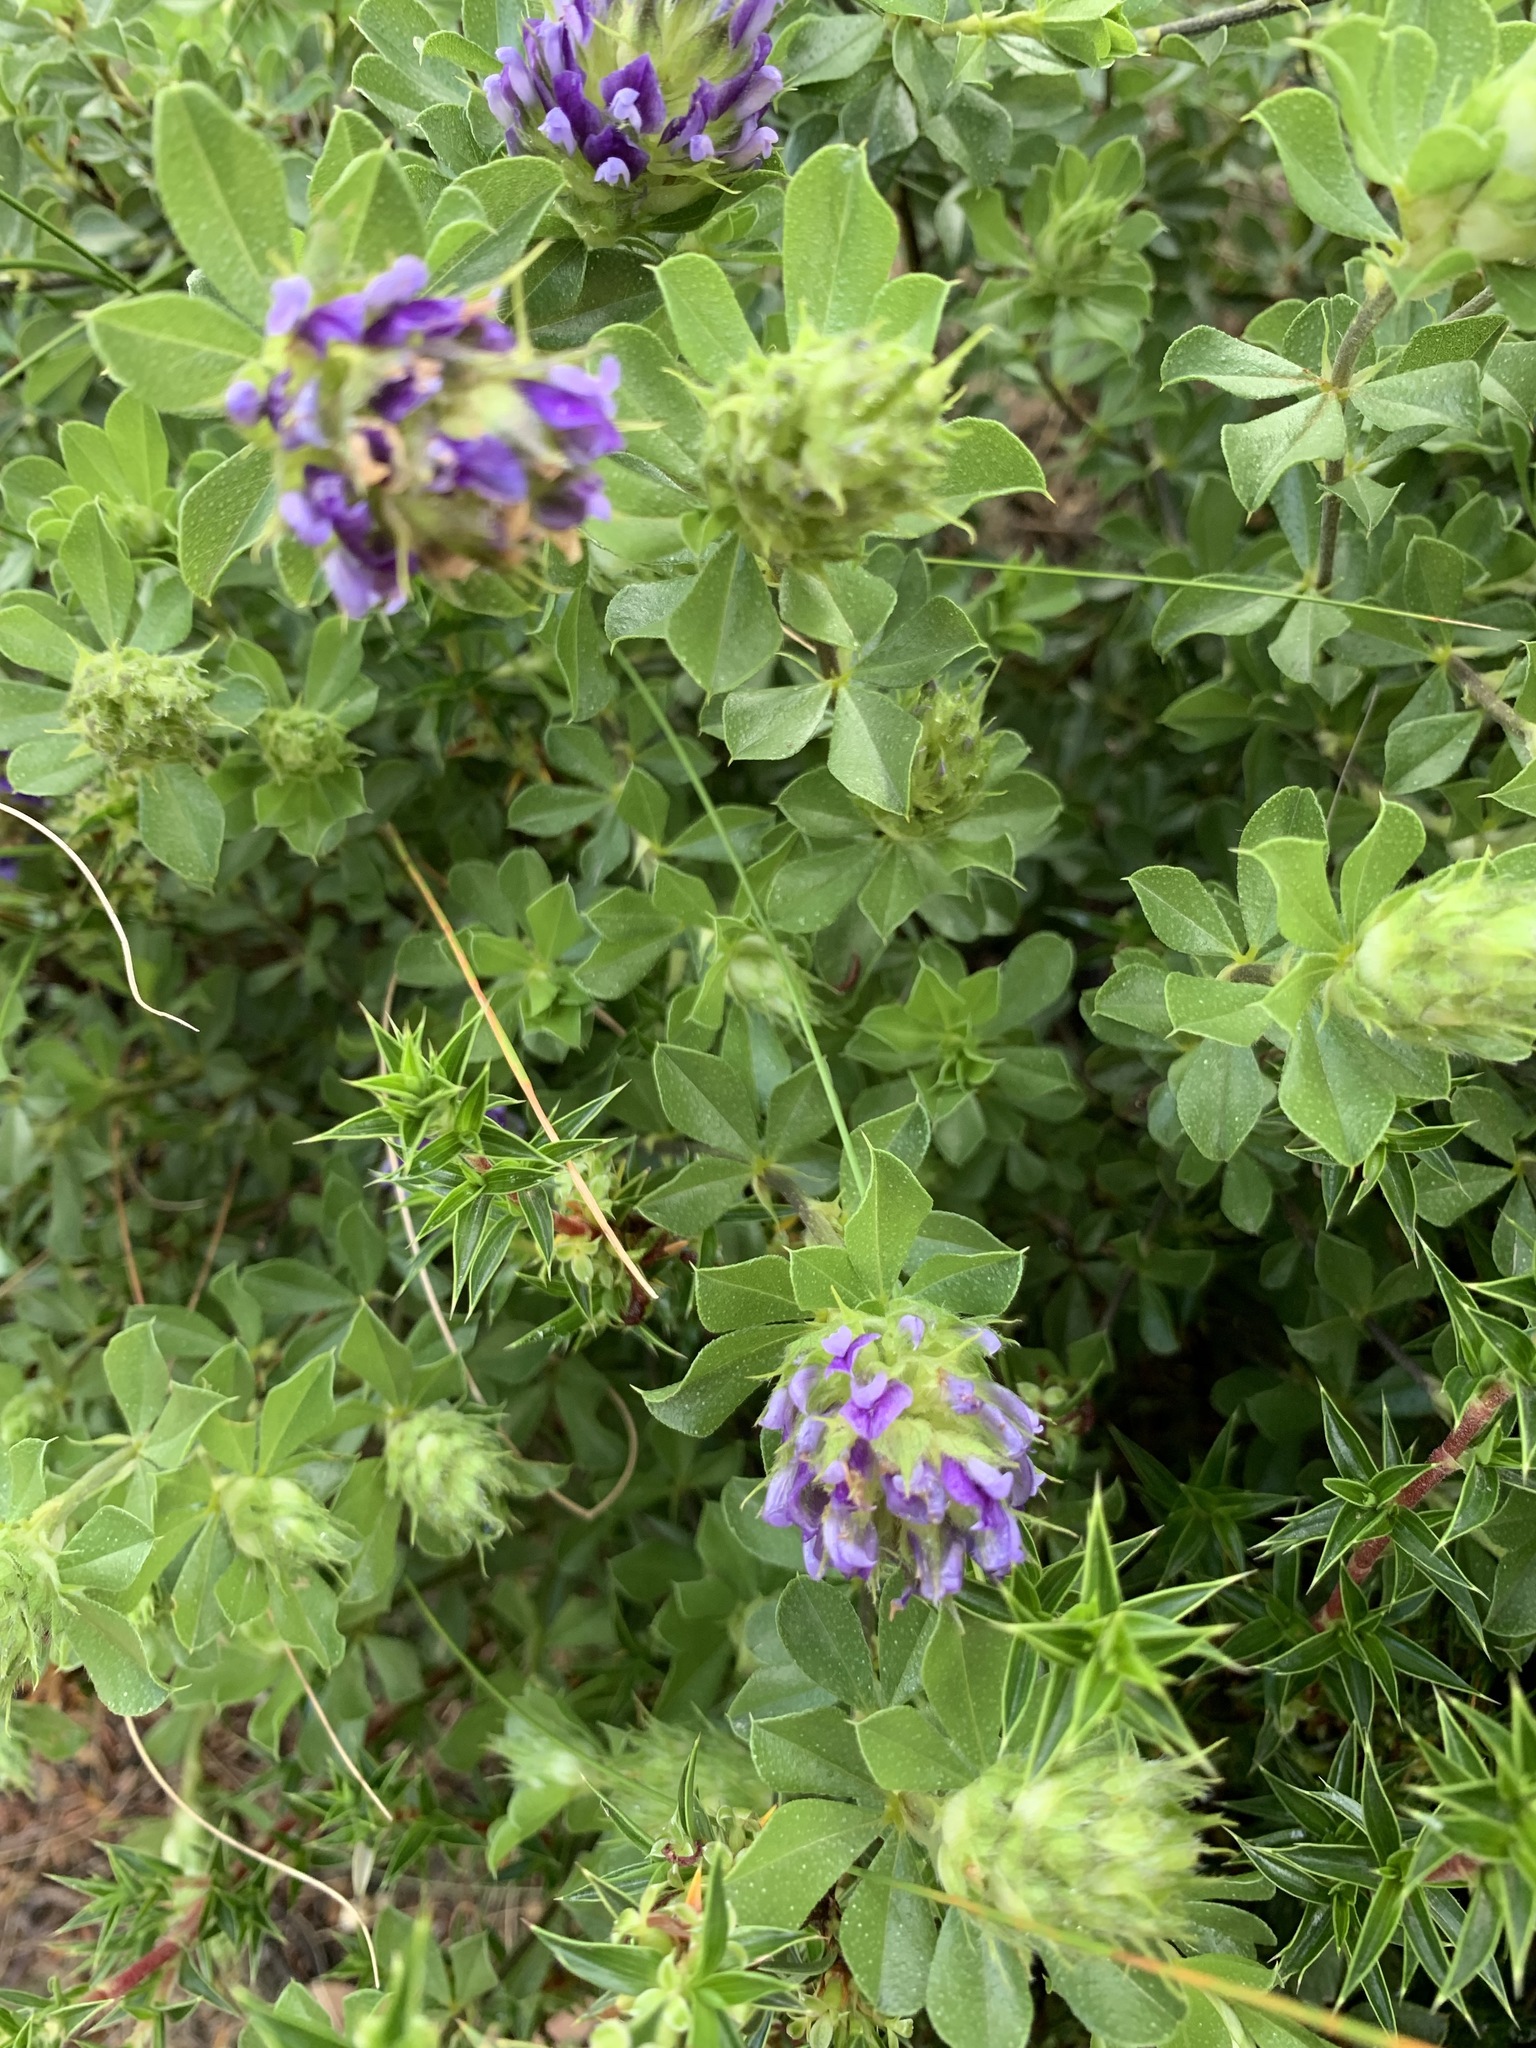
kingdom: Plantae
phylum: Tracheophyta
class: Magnoliopsida
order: Fabales
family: Fabaceae
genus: Psoralea
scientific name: Psoralea fruticans
